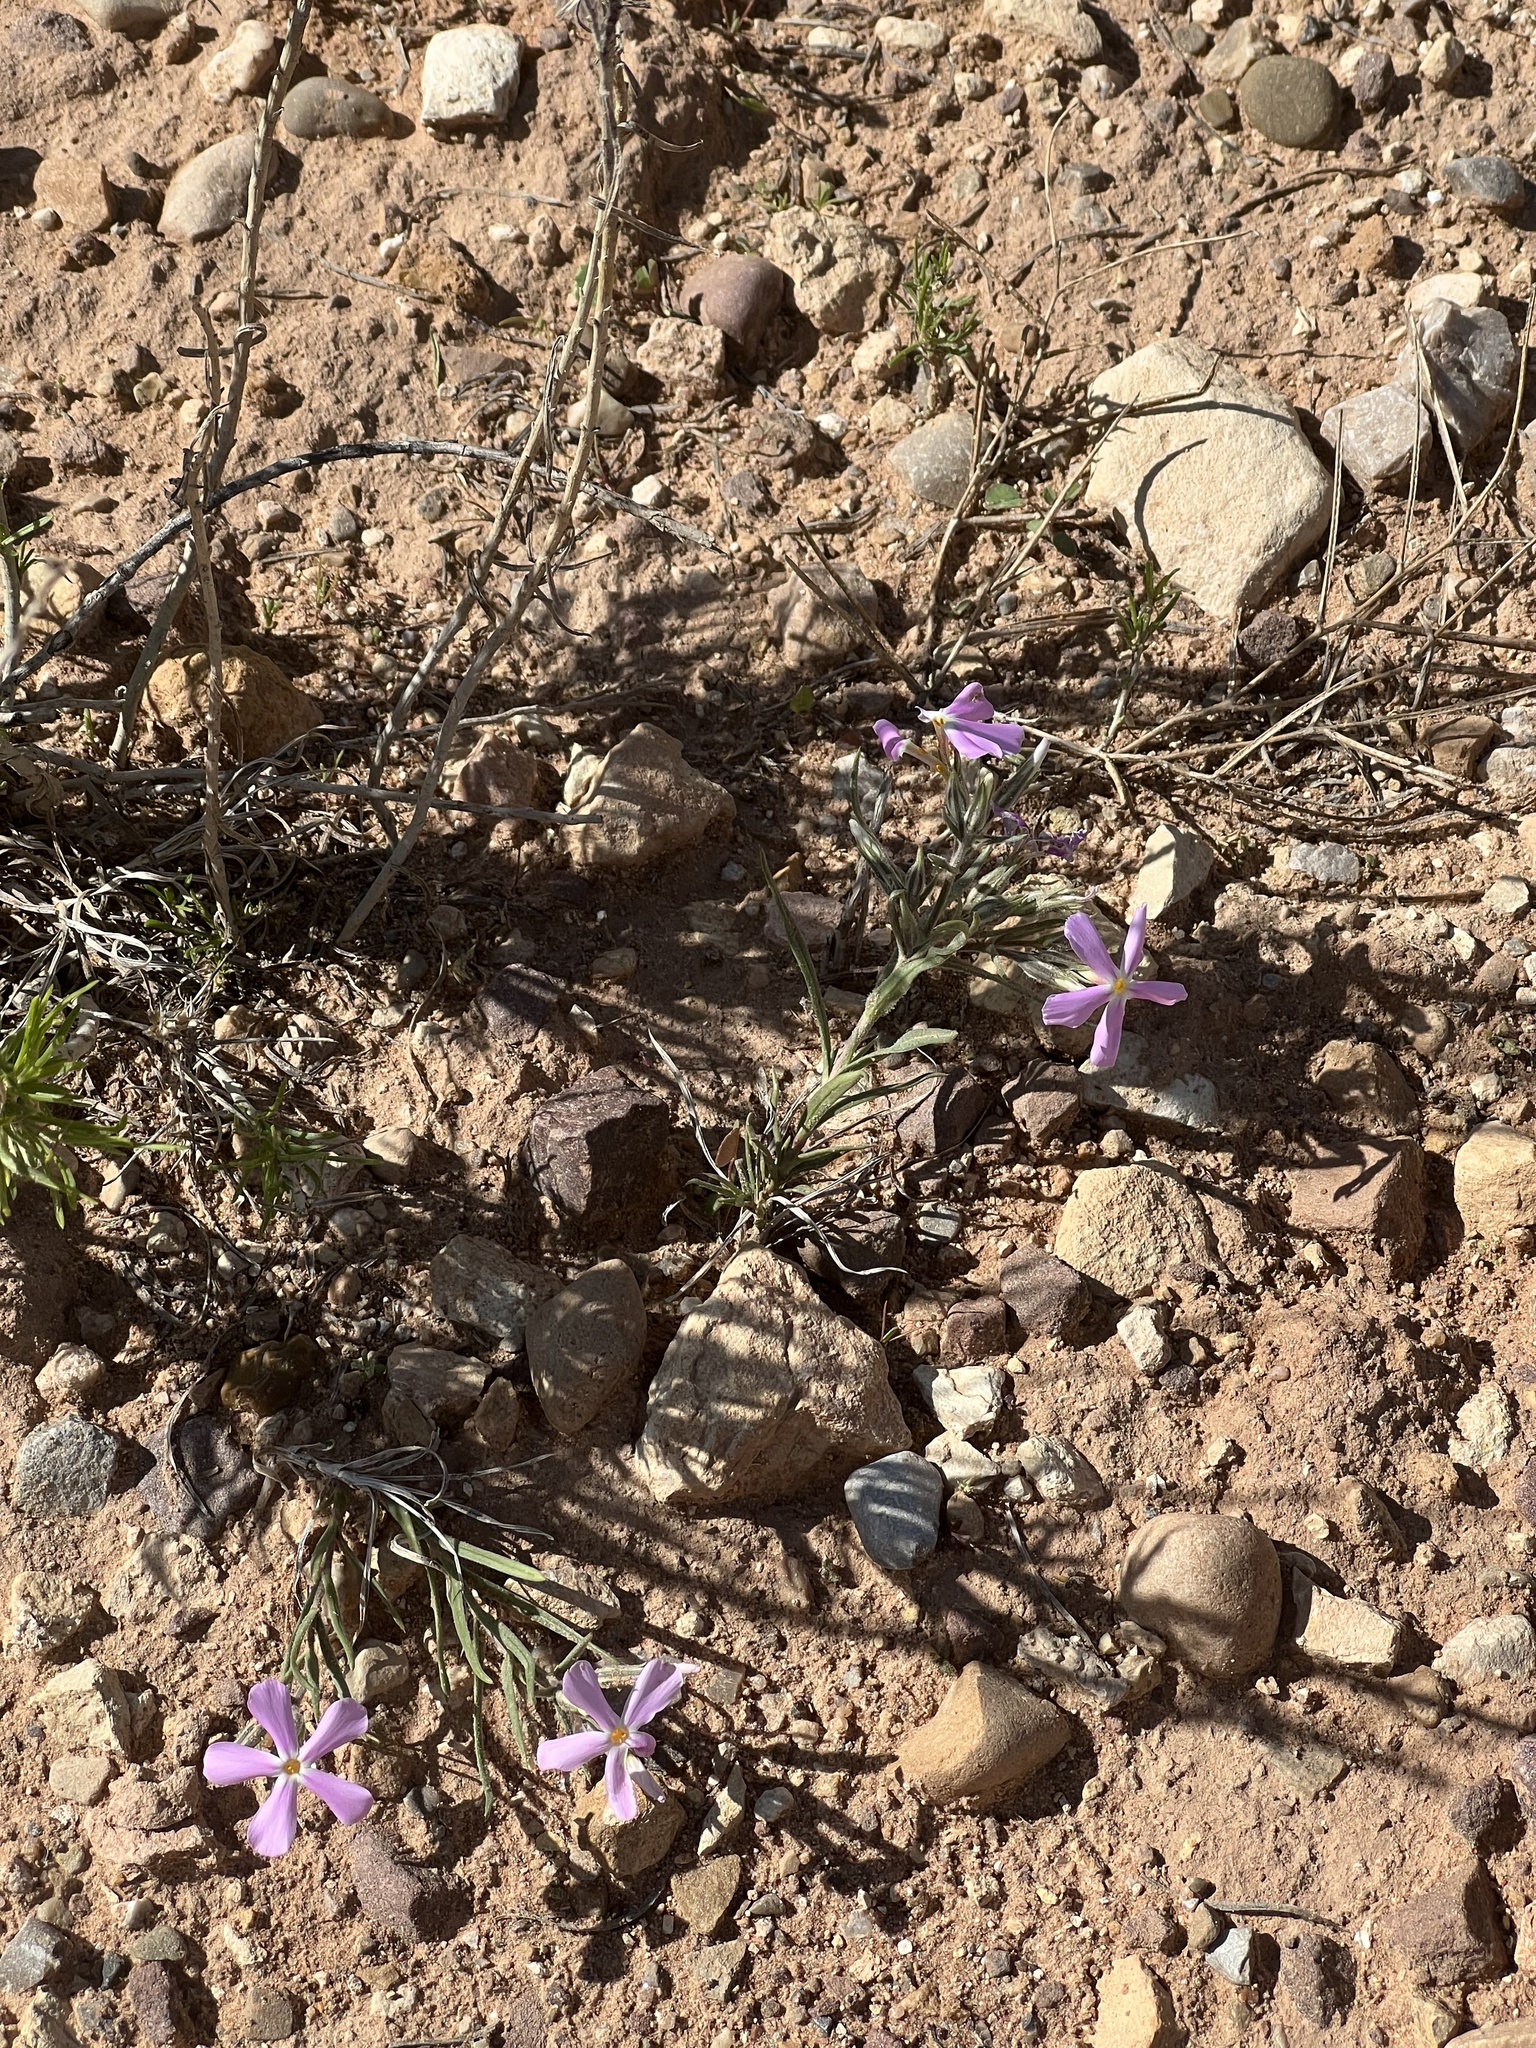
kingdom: Plantae
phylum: Tracheophyta
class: Magnoliopsida
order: Ericales
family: Polemoniaceae
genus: Phlox
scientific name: Phlox longifolia
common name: Longleaf phlox
